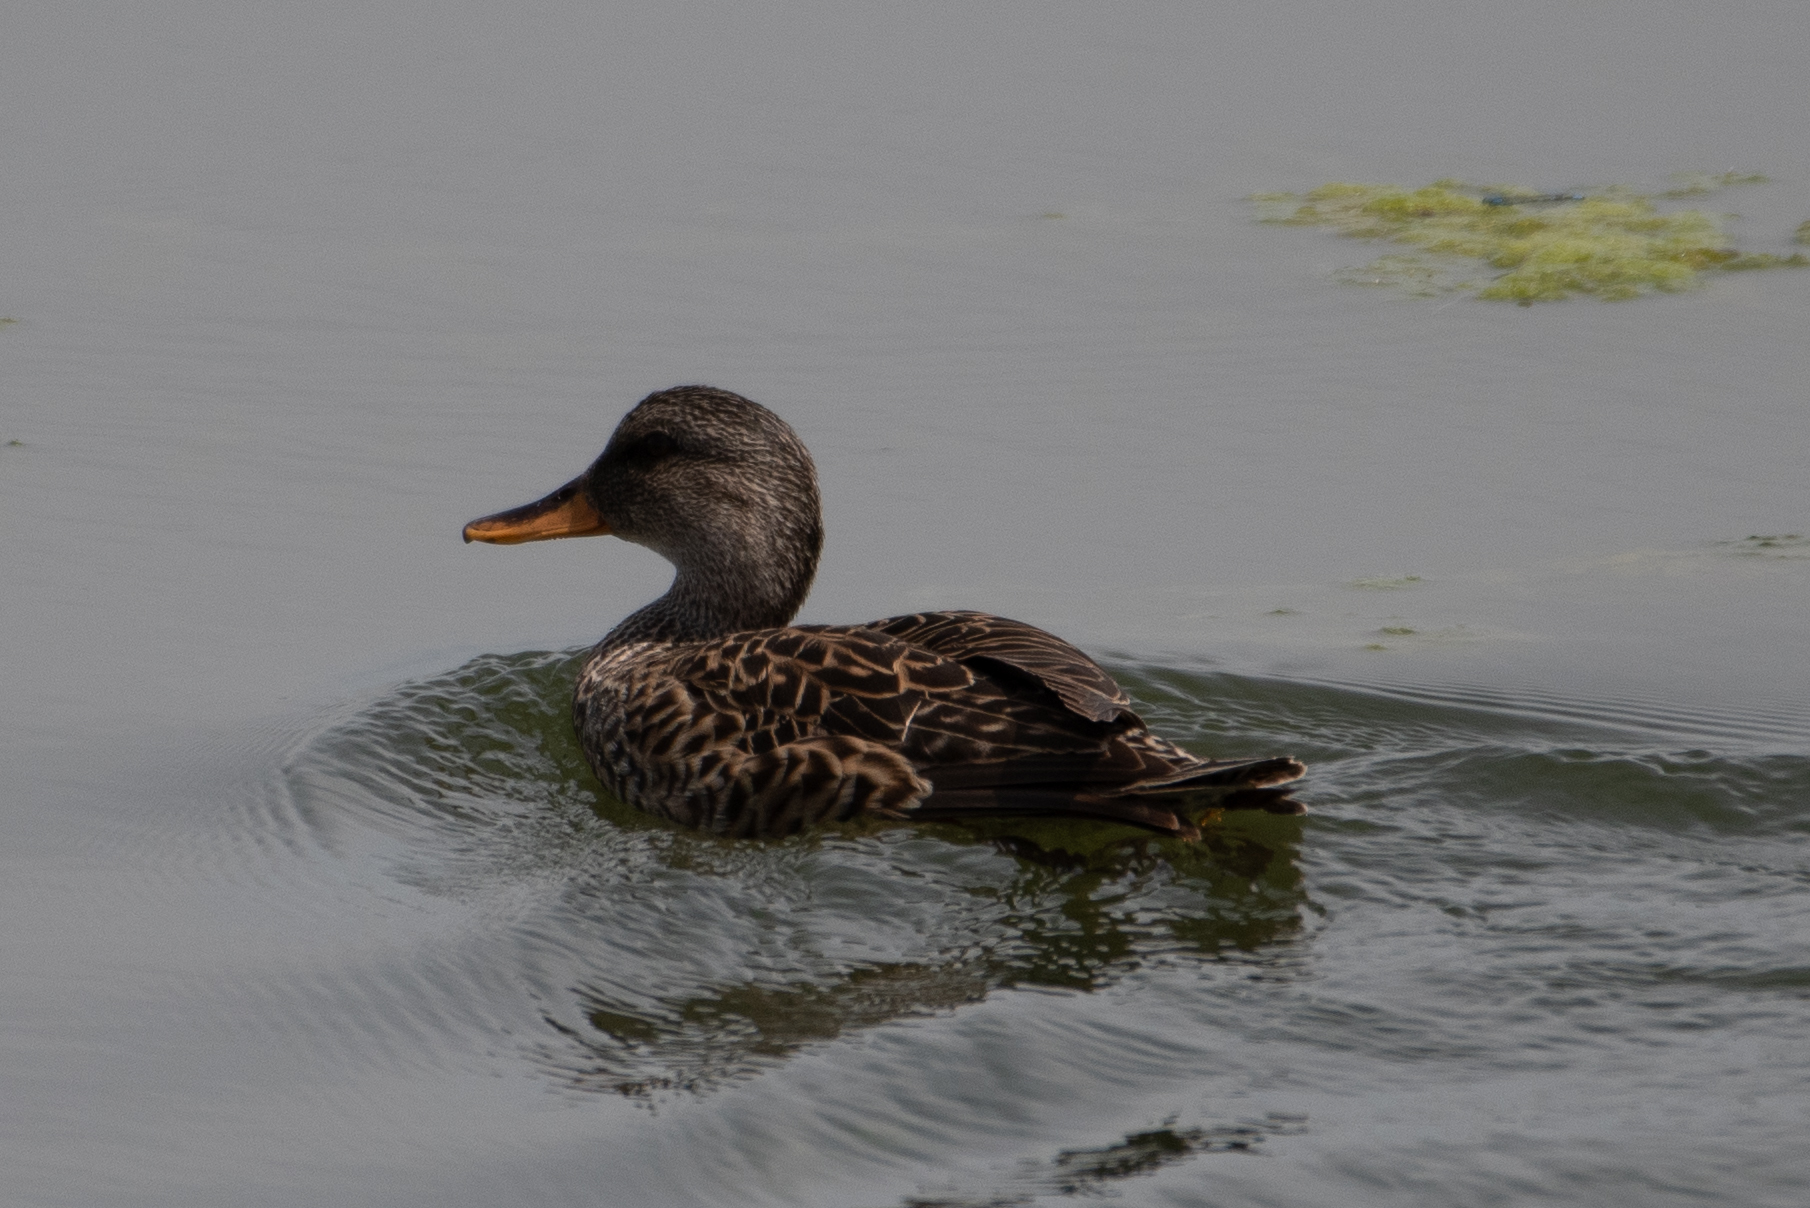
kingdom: Animalia
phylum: Chordata
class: Aves
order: Anseriformes
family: Anatidae
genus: Mareca
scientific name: Mareca strepera
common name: Gadwall
